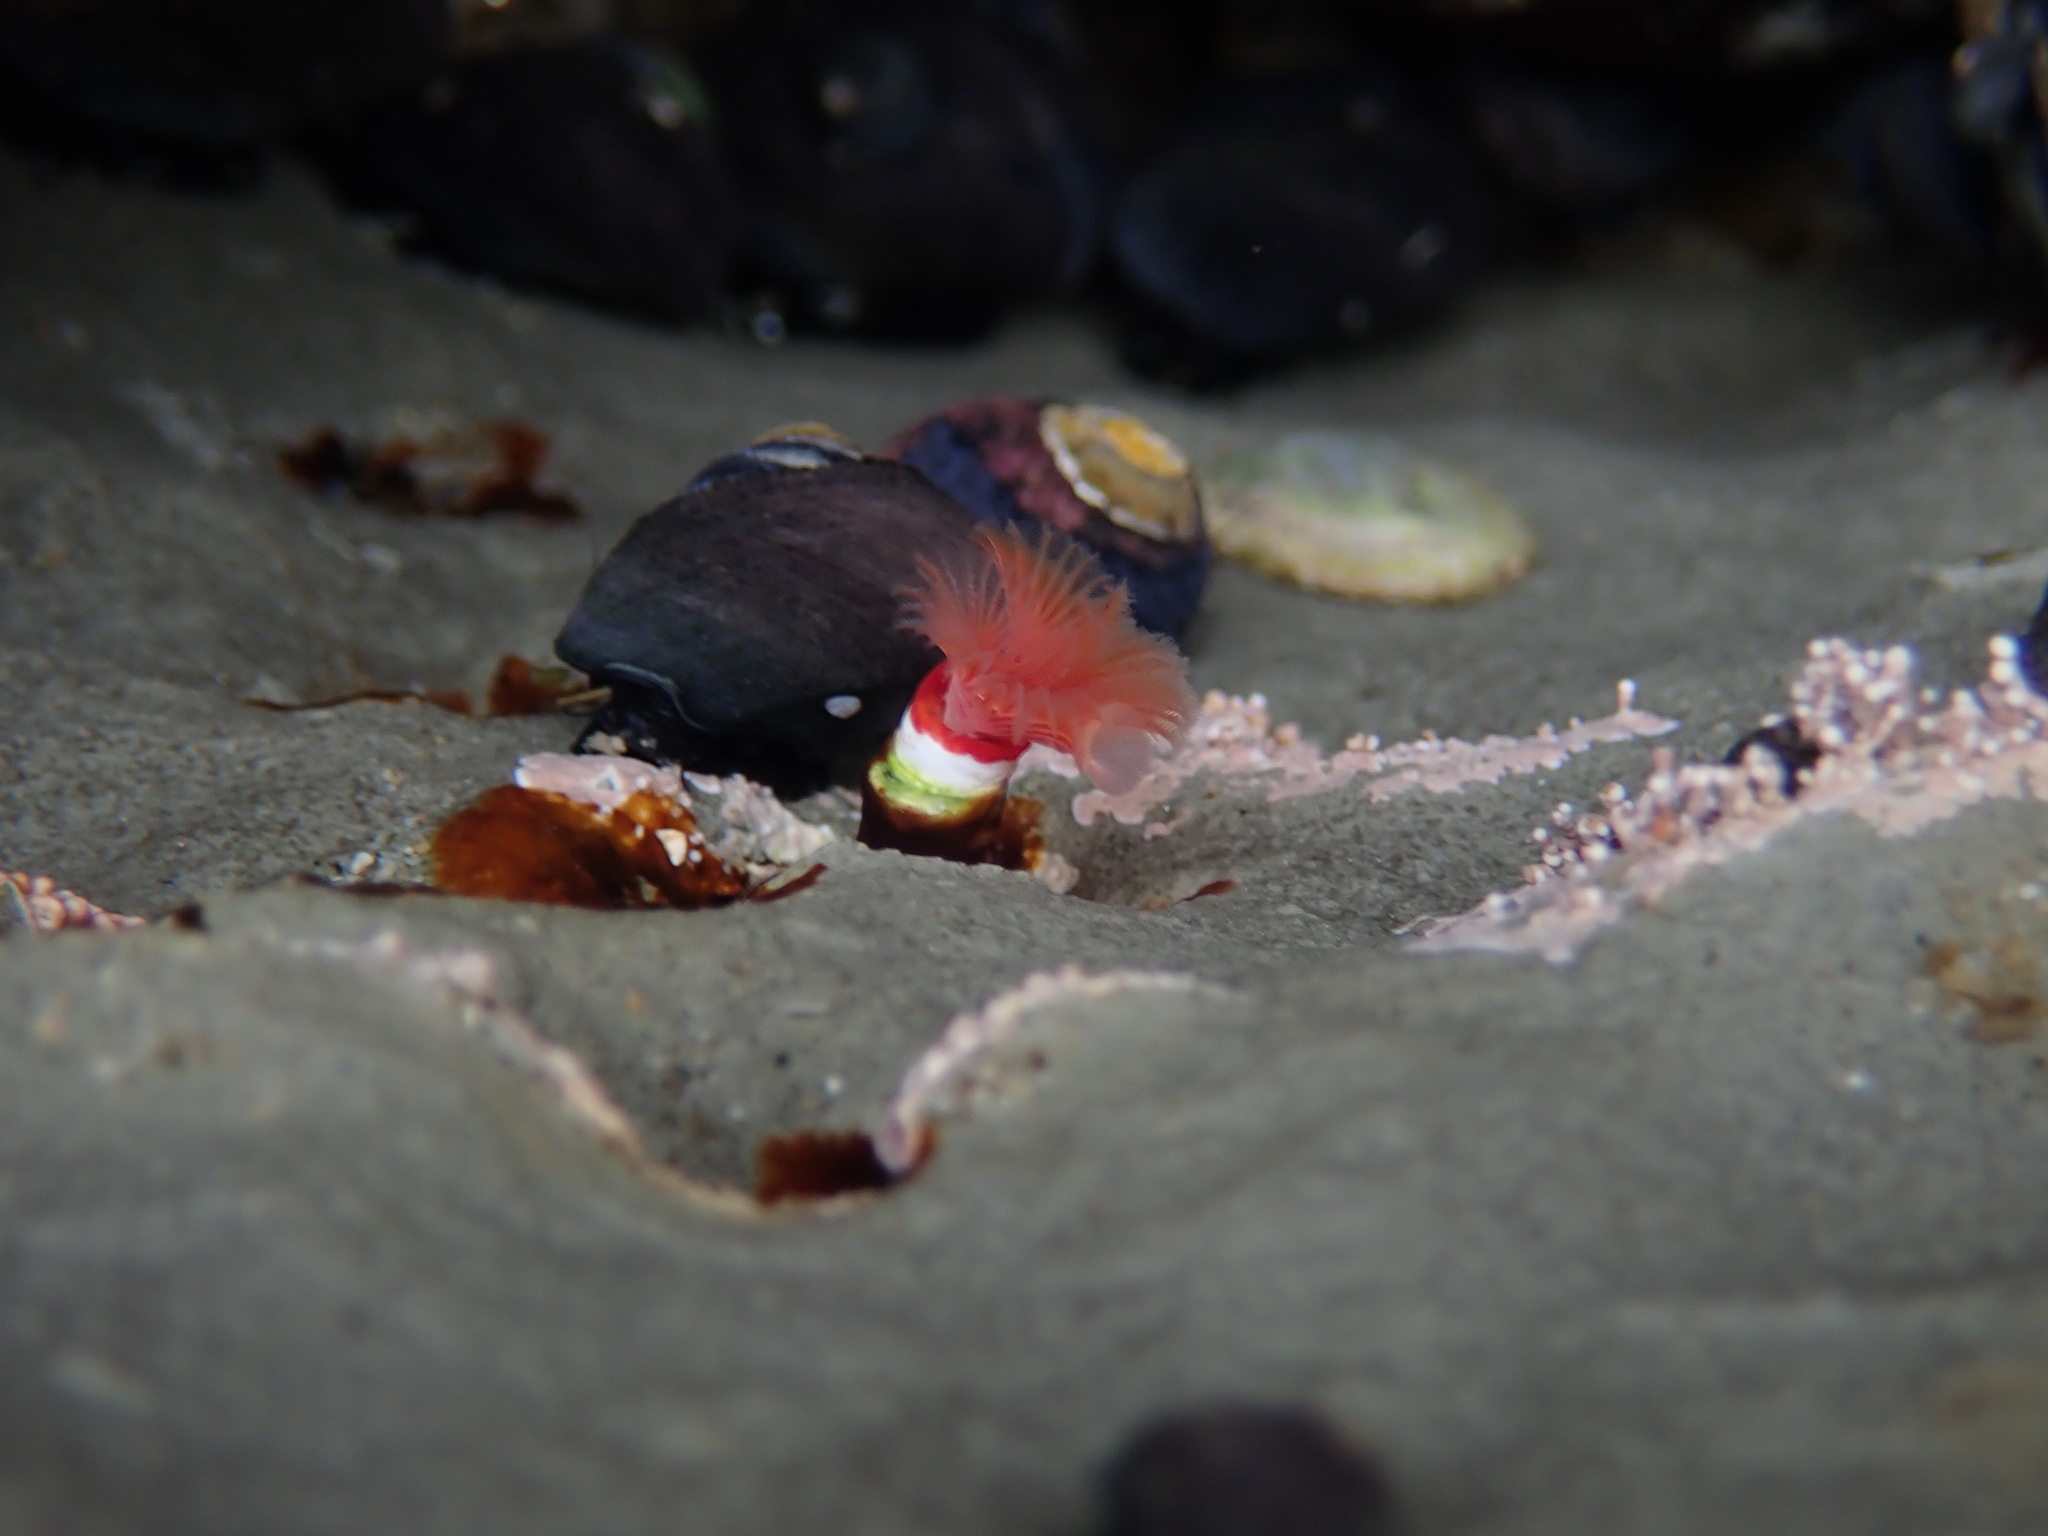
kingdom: Animalia
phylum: Annelida
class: Polychaeta
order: Sabellida
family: Serpulidae
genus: Serpula
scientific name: Serpula columbiana
